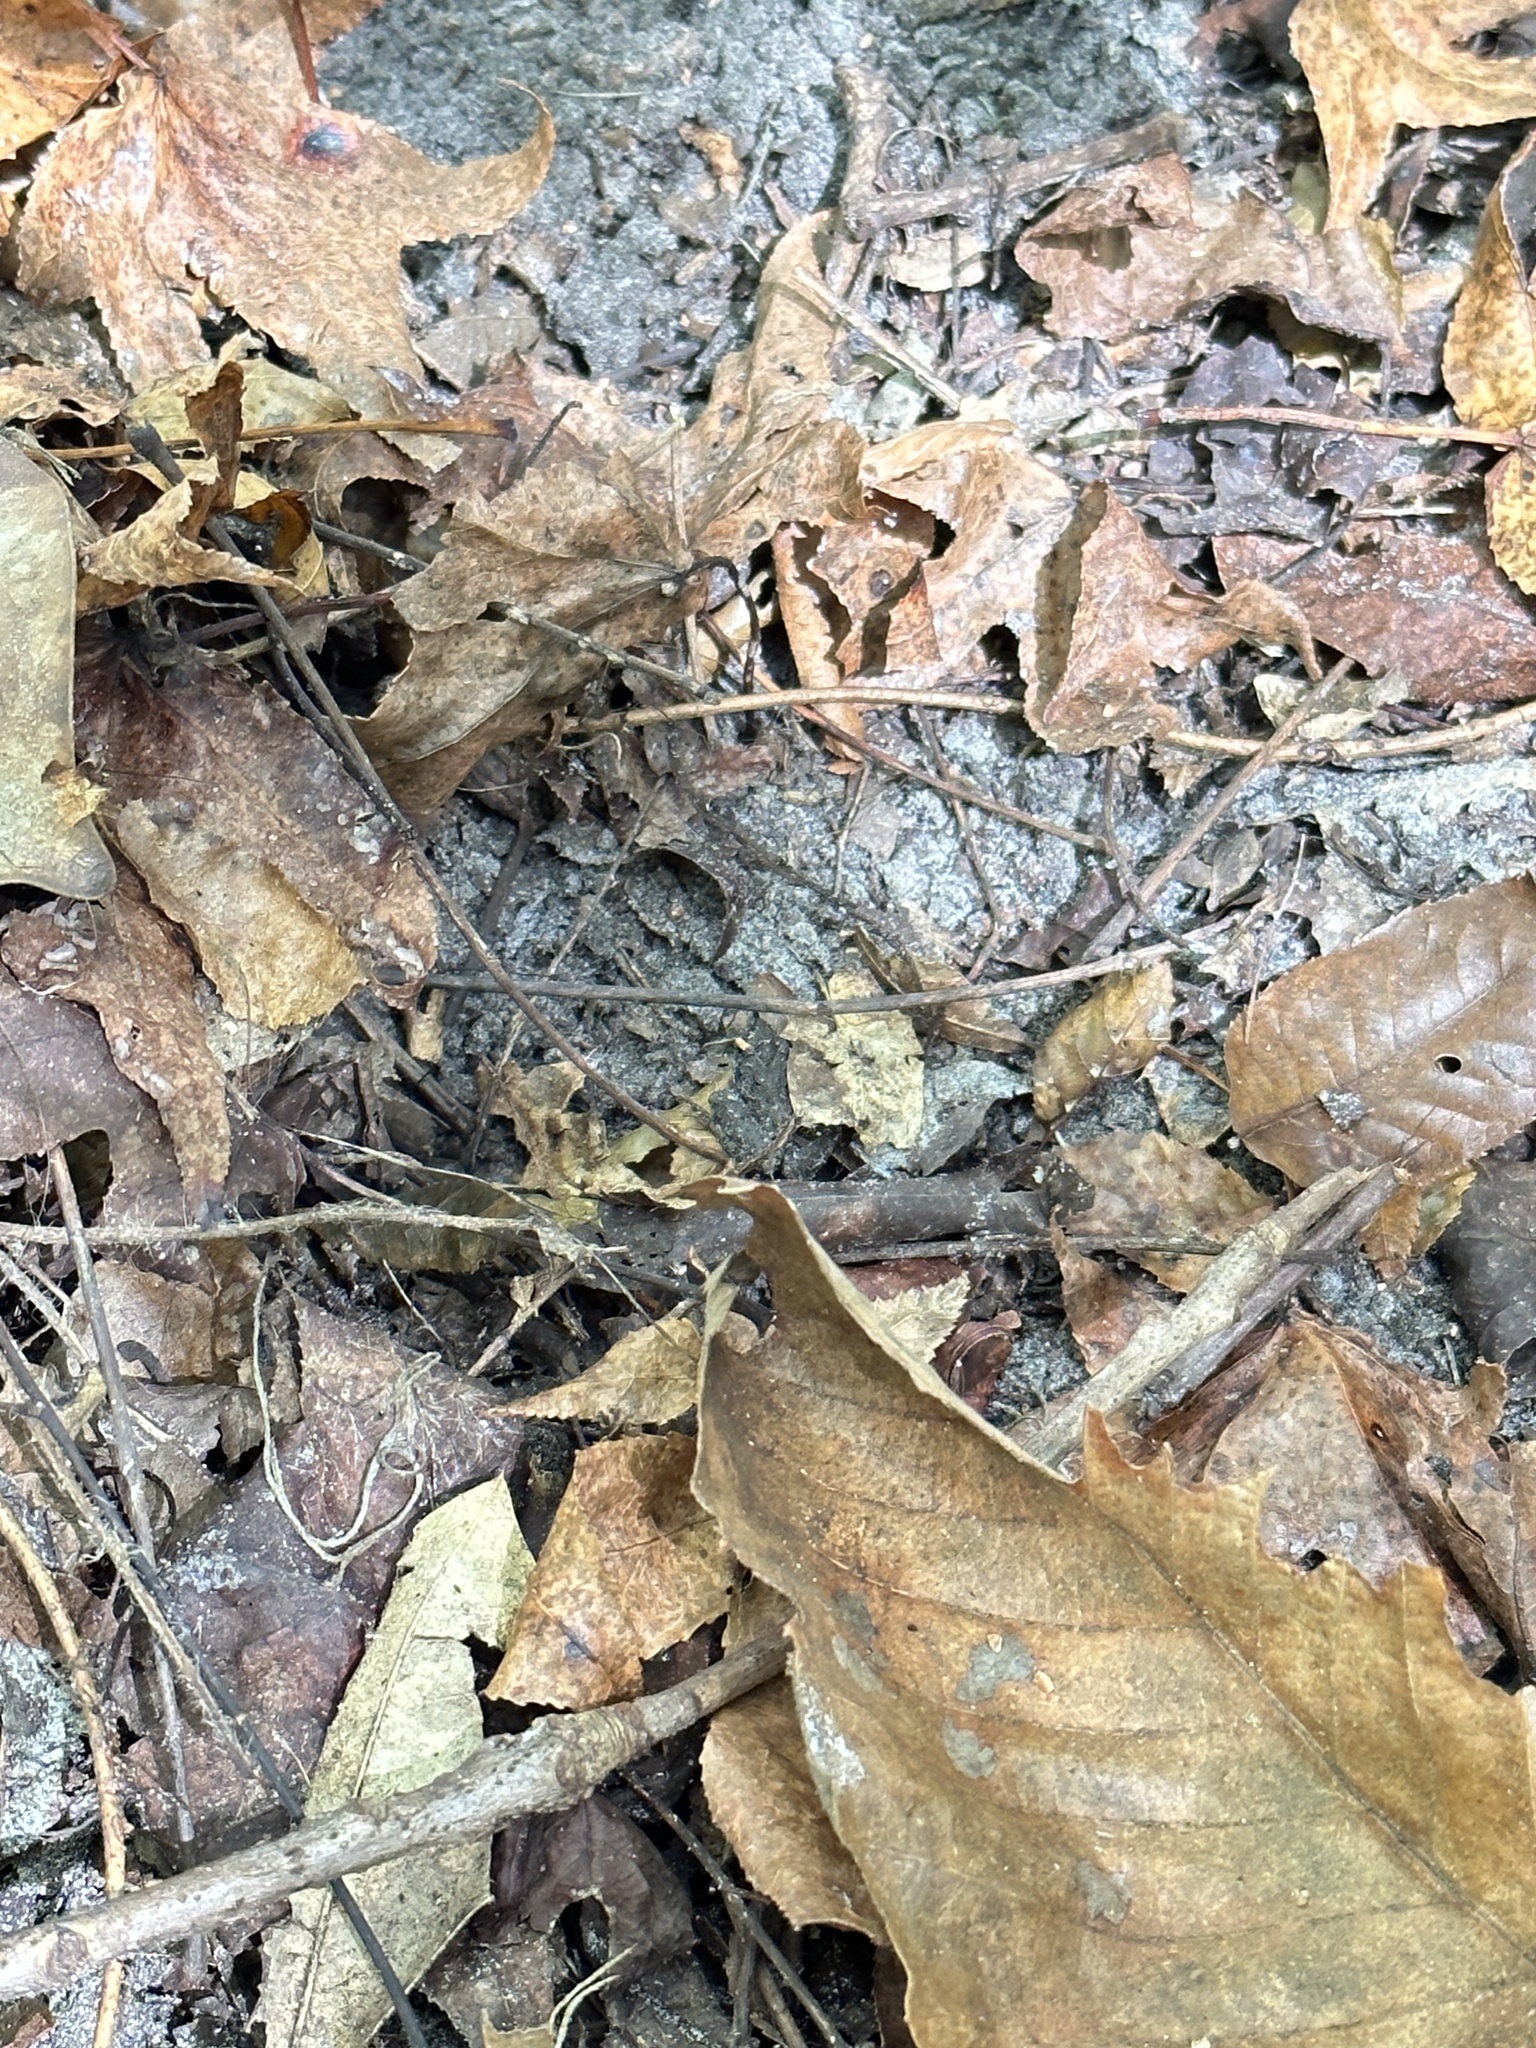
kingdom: Animalia
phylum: Chordata
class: Amphibia
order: Anura
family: Hylidae
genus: Acris
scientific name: Acris gryllus
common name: Southern cricket frog
